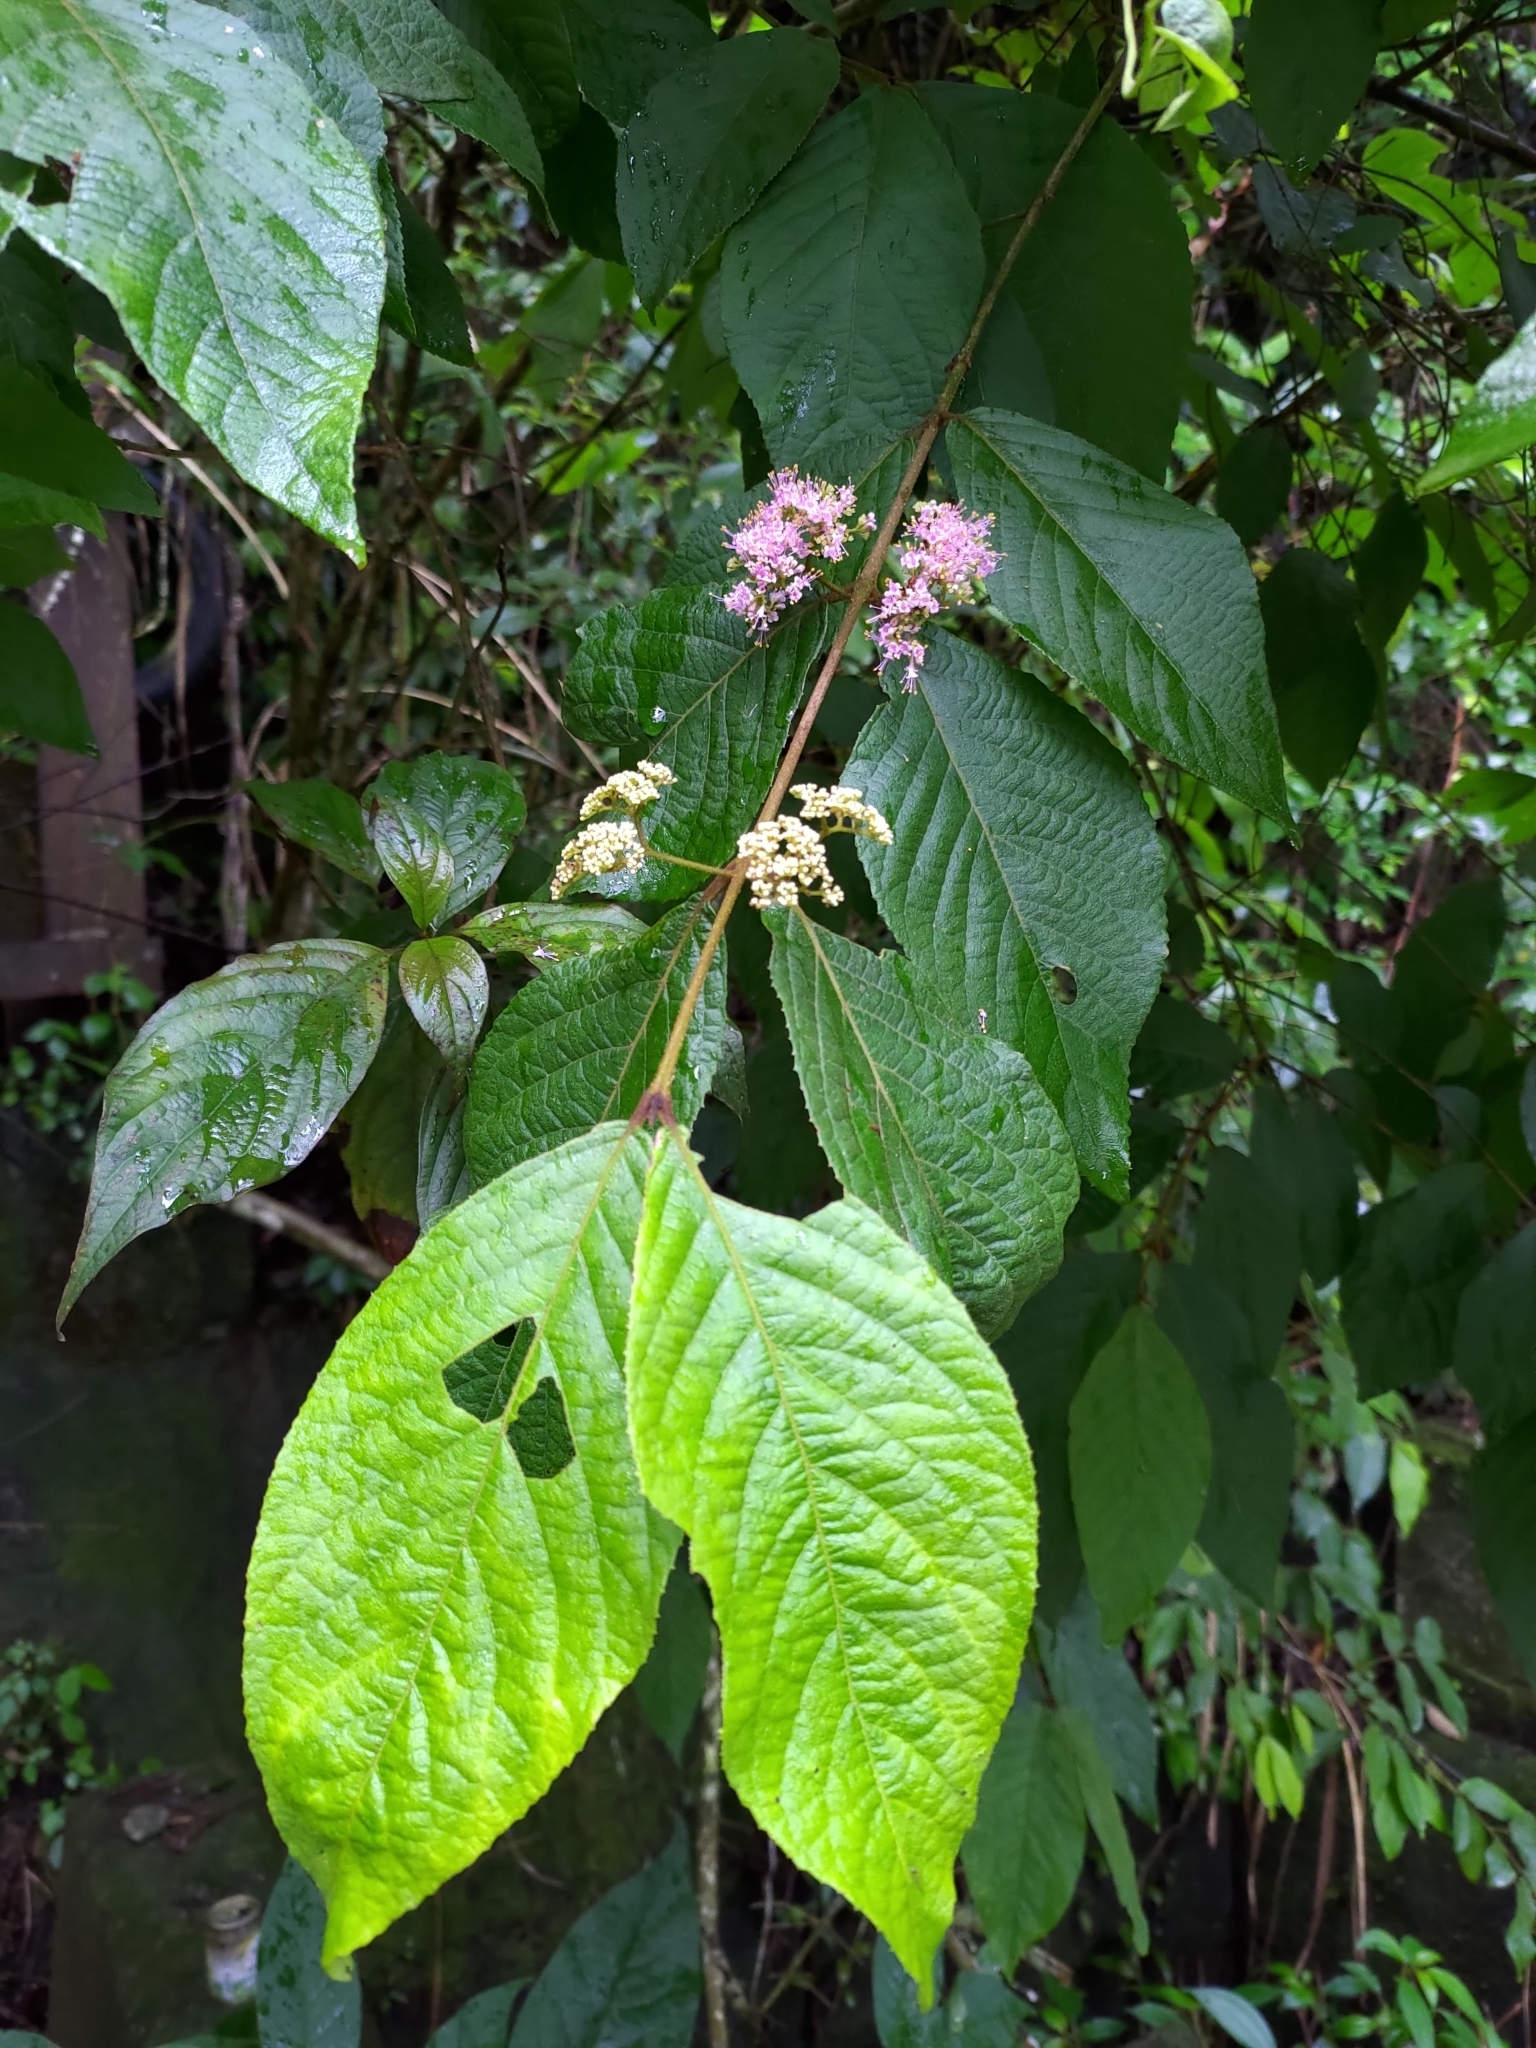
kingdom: Plantae
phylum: Tracheophyta
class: Magnoliopsida
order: Lamiales
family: Lamiaceae
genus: Callicarpa
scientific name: Callicarpa pedunculata
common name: Velvetleaf
